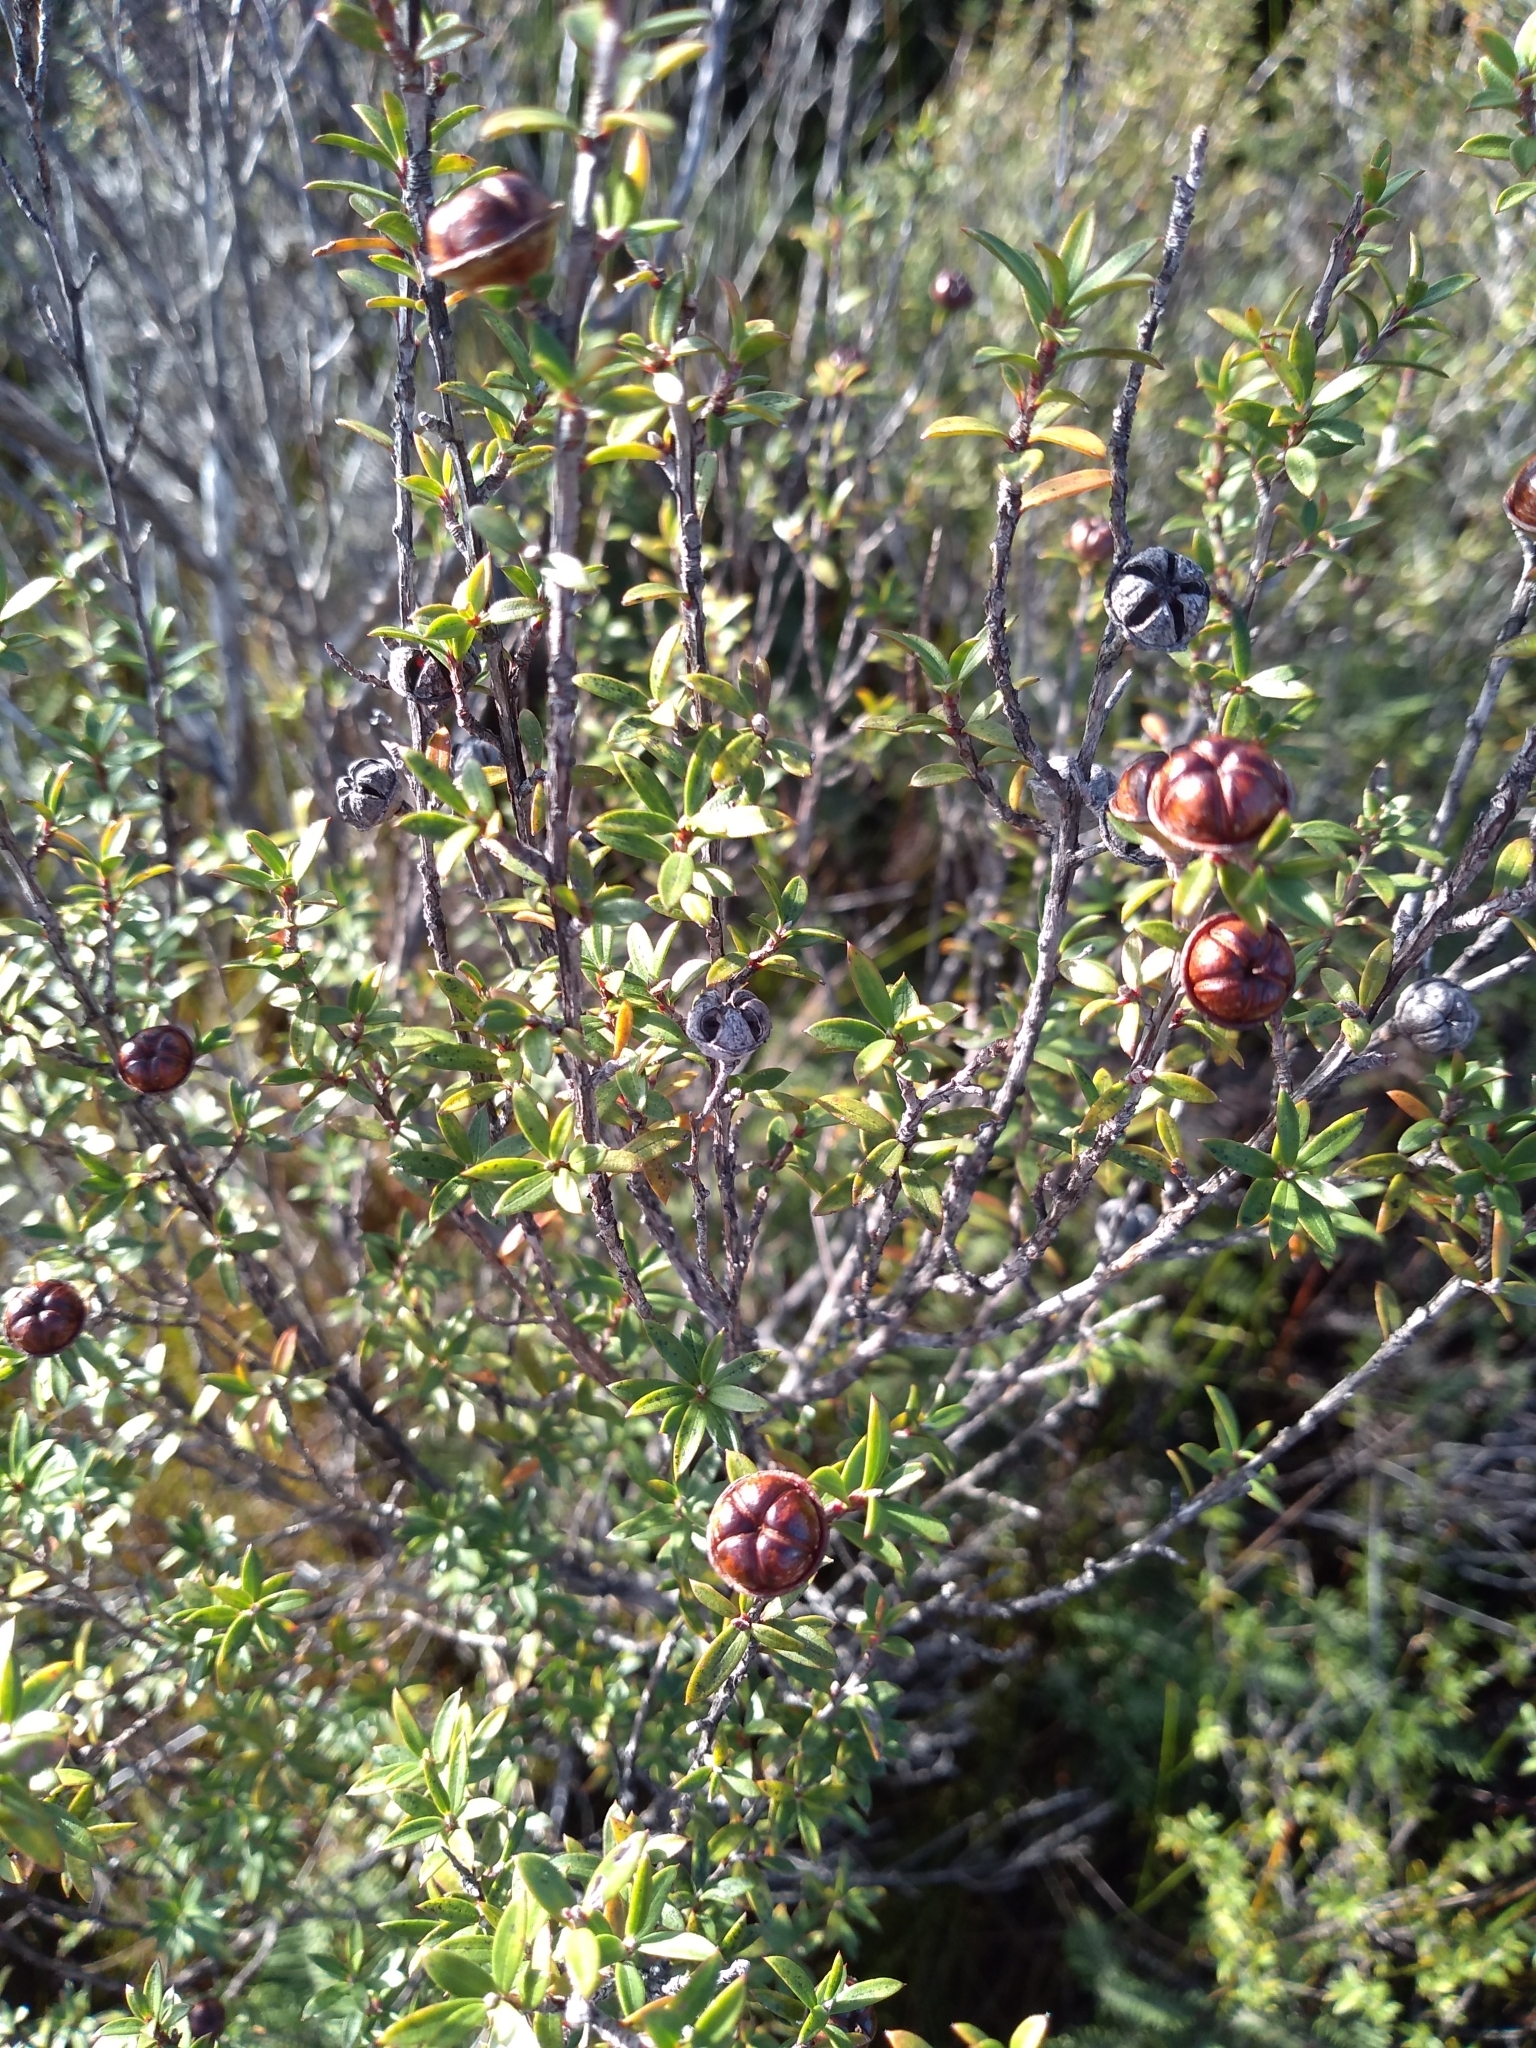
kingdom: Plantae
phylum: Tracheophyta
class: Magnoliopsida
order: Myrtales
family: Myrtaceae
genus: Leptospermum
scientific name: Leptospermum scoparium
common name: Broom tea-tree
